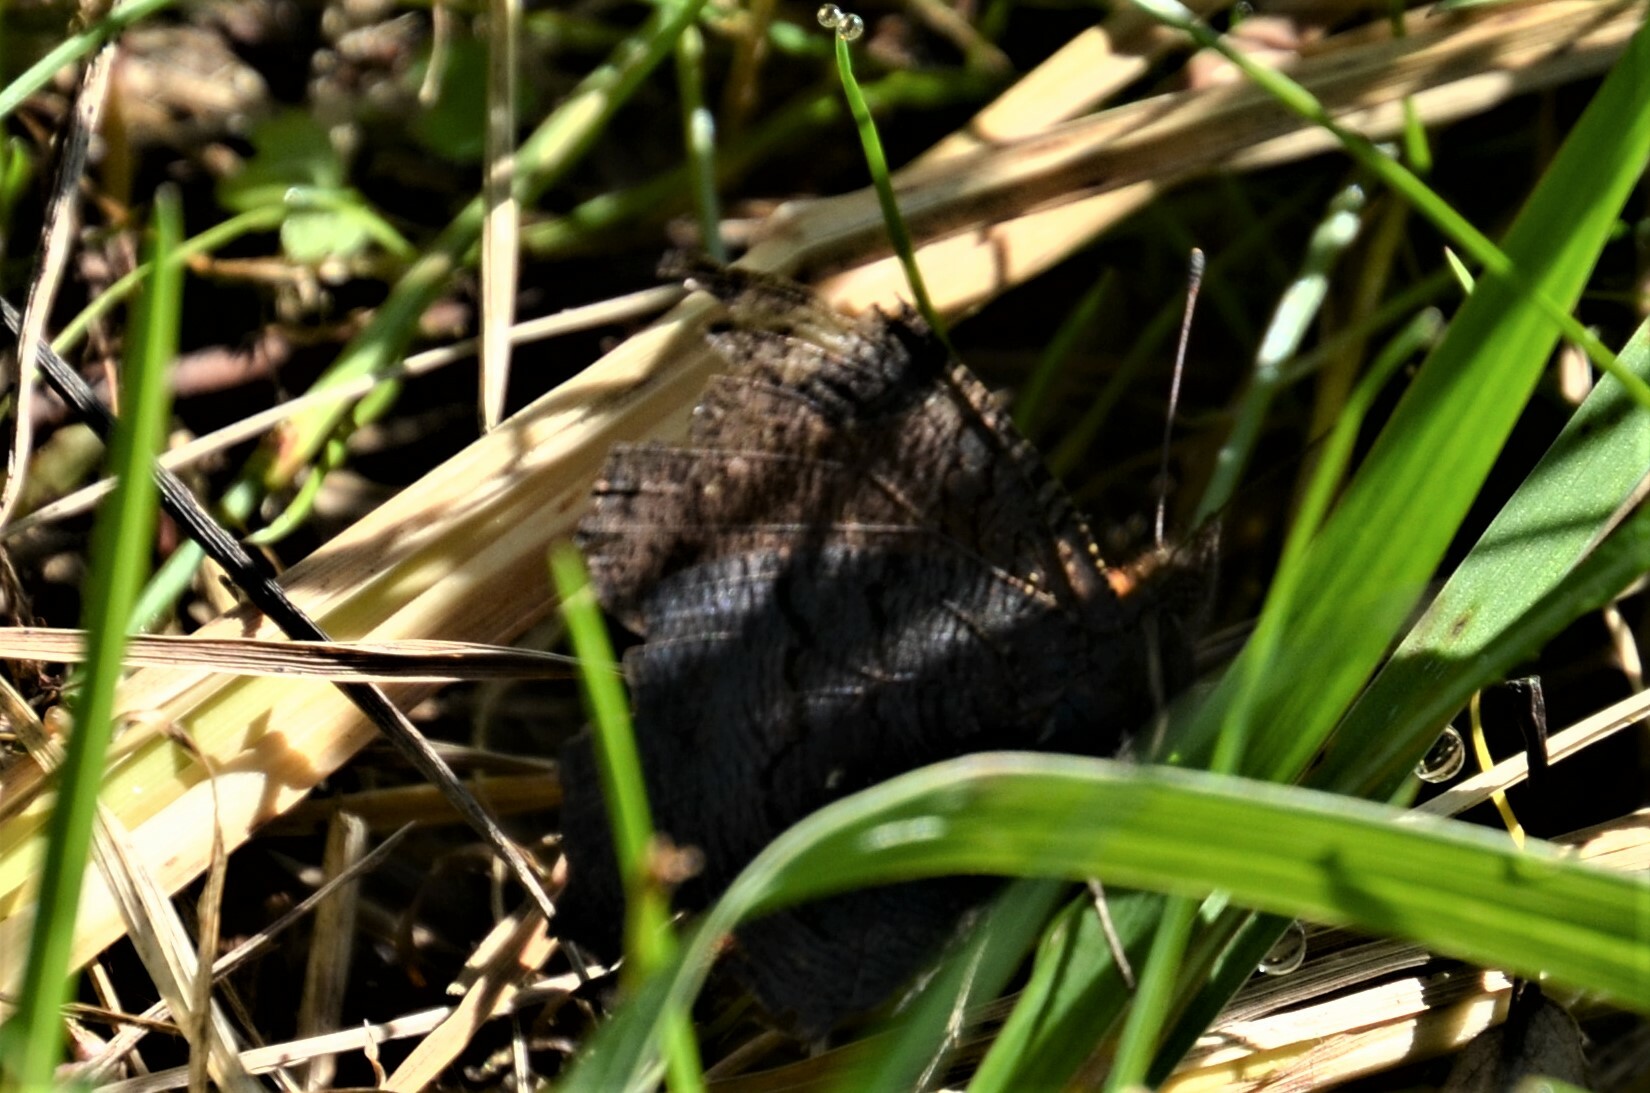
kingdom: Animalia
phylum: Arthropoda
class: Insecta
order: Lepidoptera
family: Nymphalidae
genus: Aglais
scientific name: Aglais io
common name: Peacock
